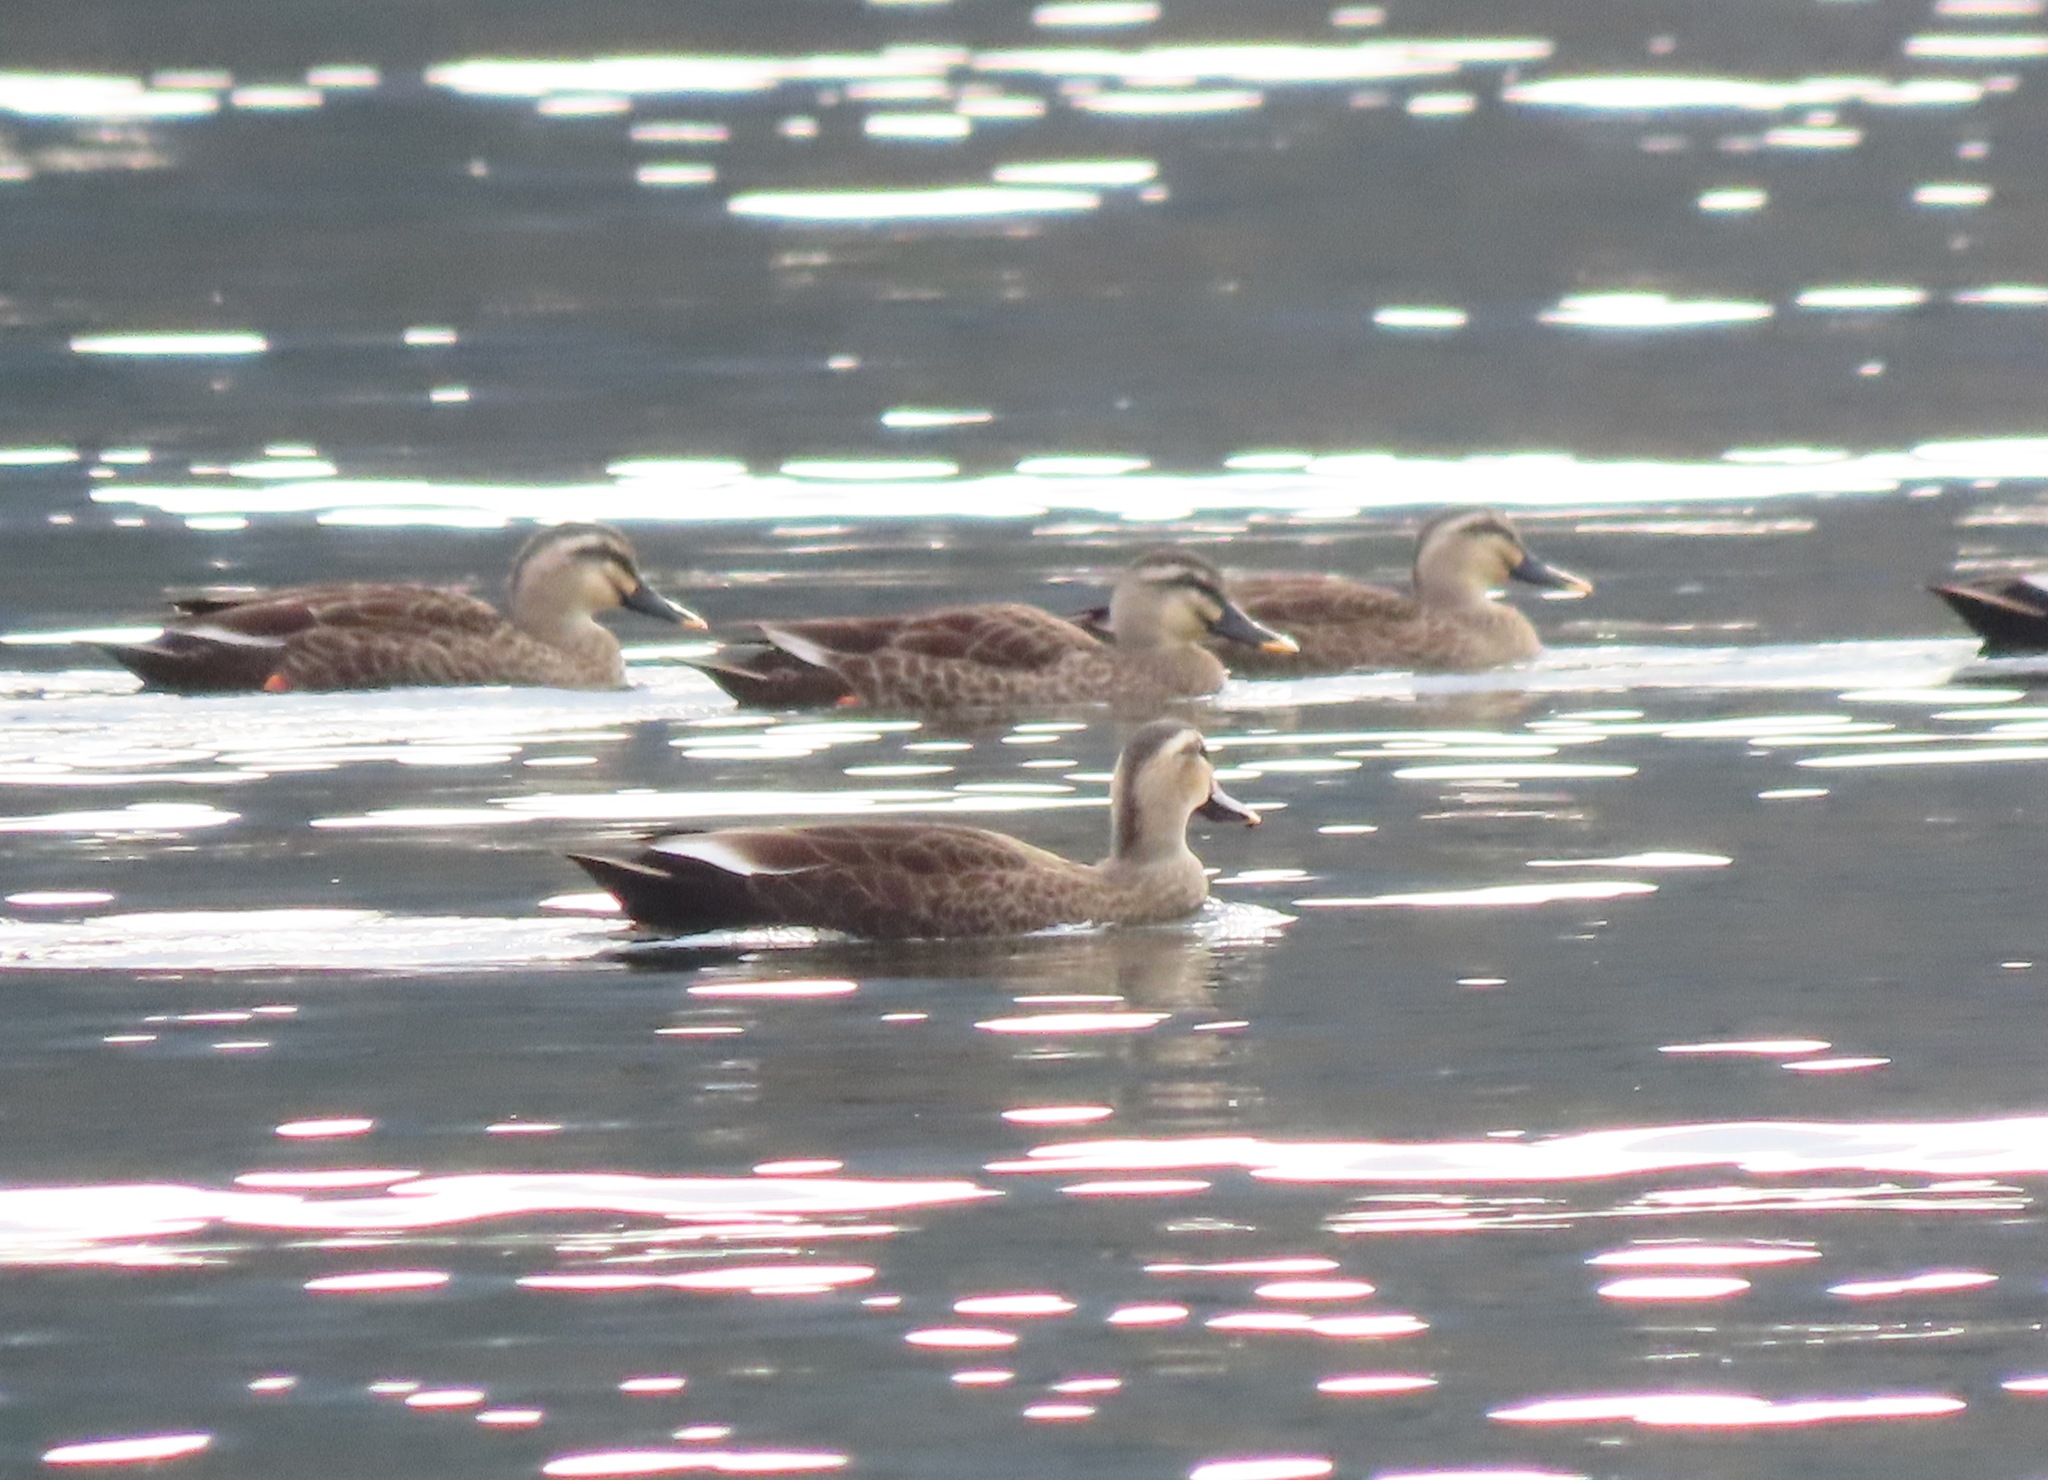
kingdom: Animalia
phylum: Chordata
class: Aves
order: Anseriformes
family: Anatidae
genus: Anas
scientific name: Anas zonorhyncha
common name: Eastern spot-billed duck
